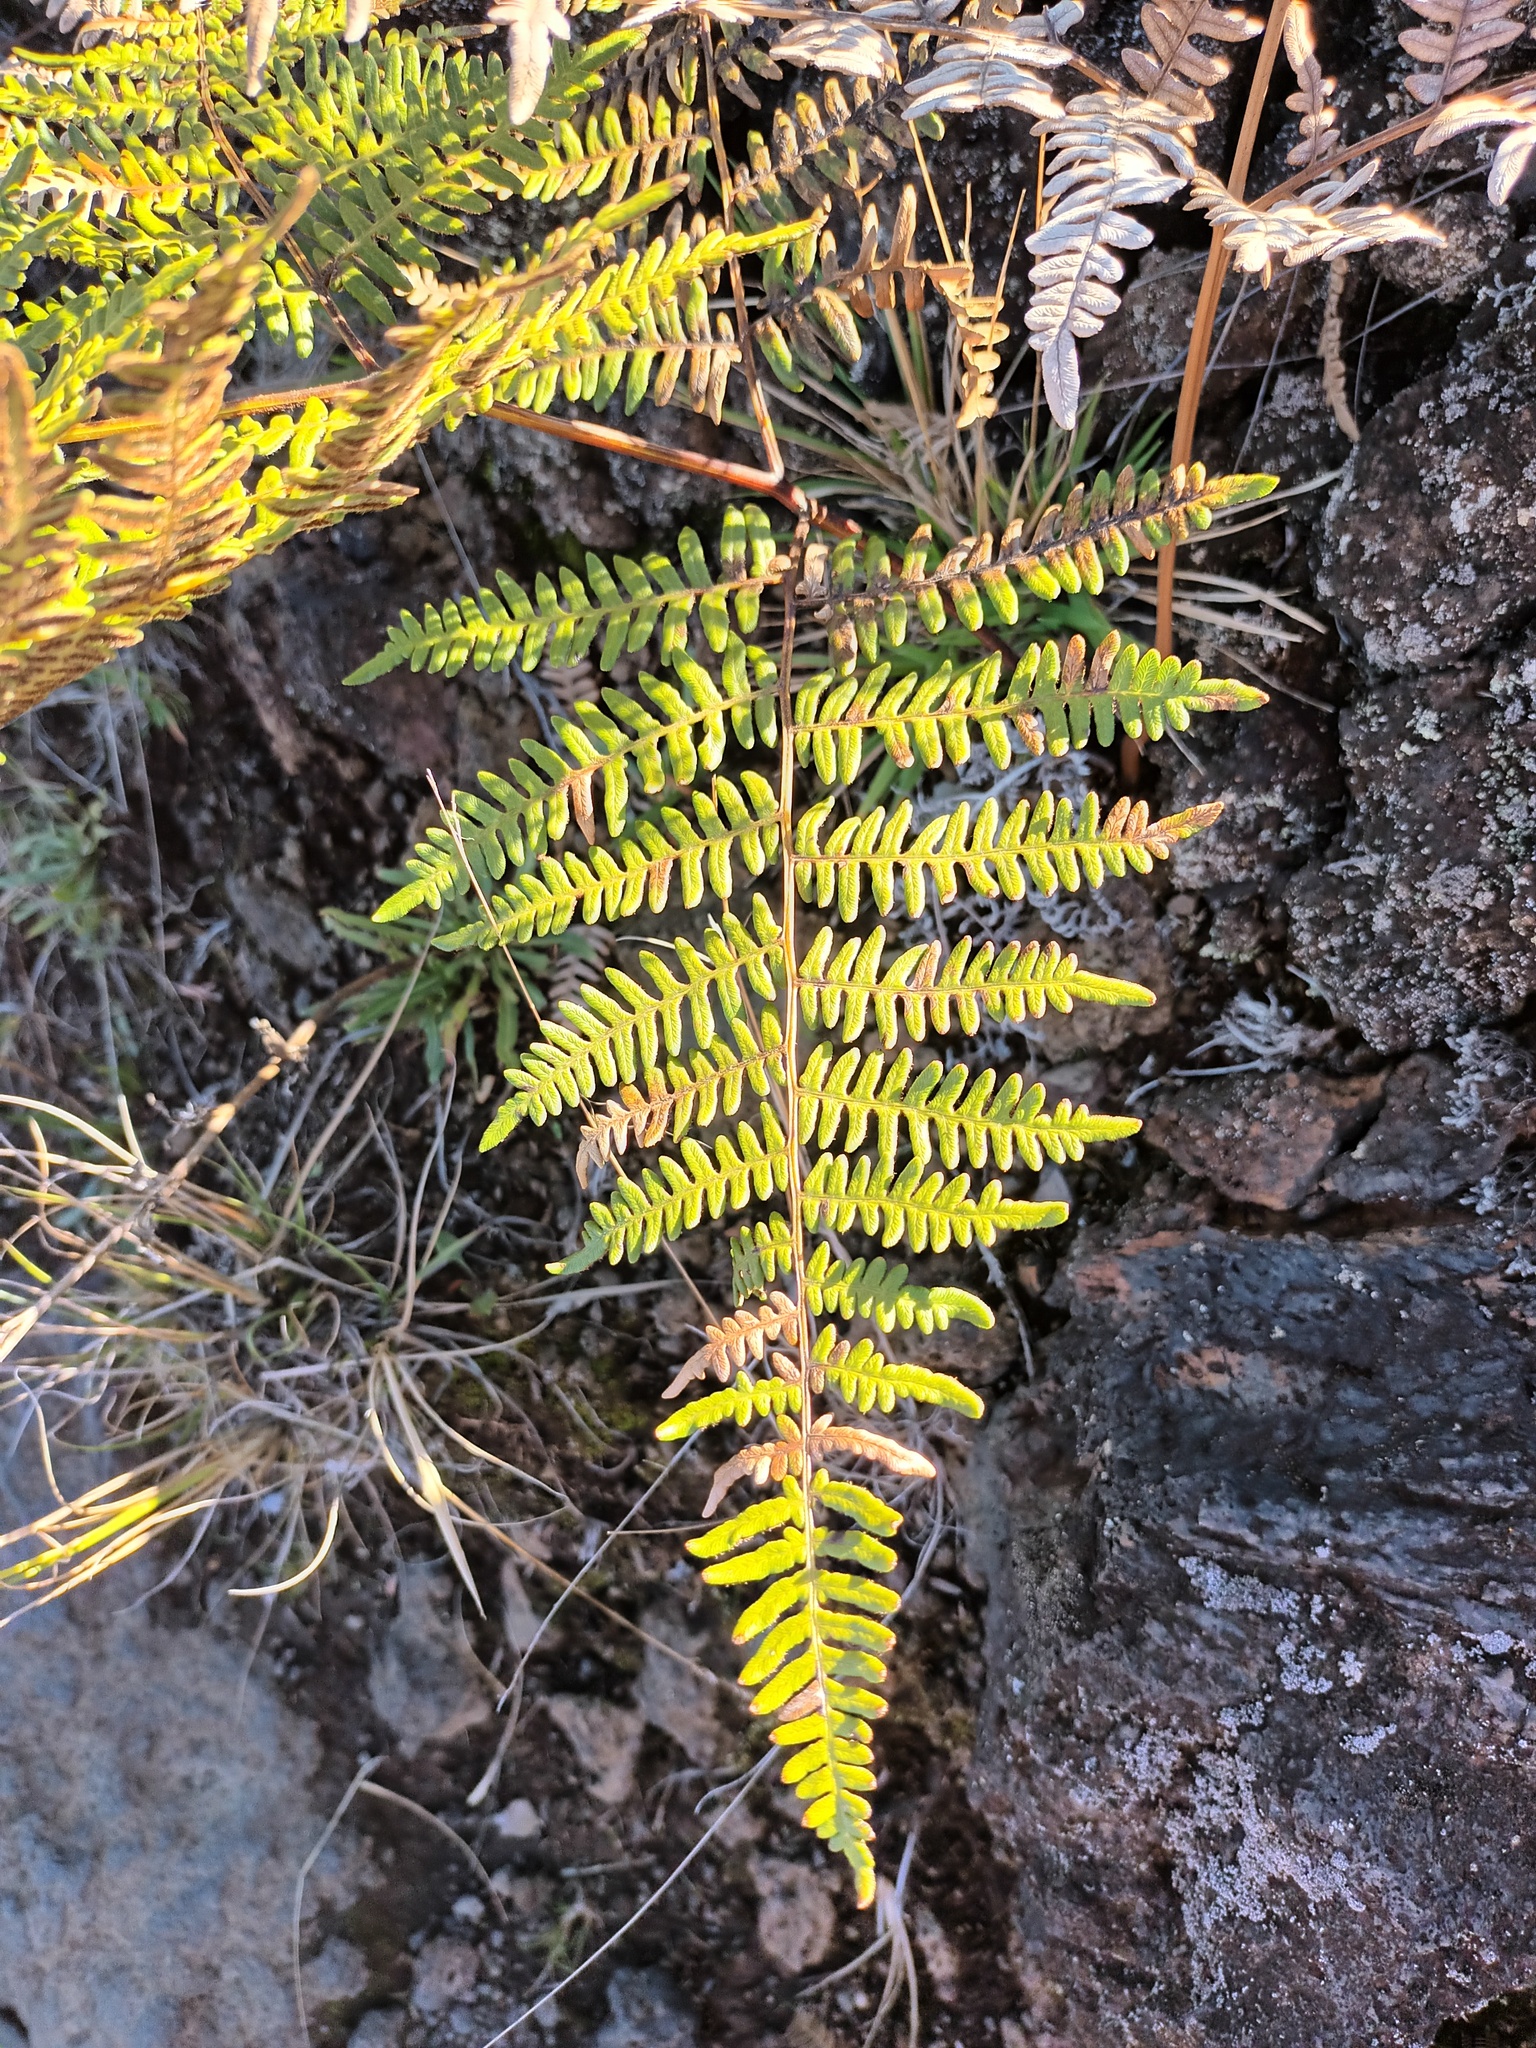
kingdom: Plantae
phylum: Tracheophyta
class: Polypodiopsida
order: Polypodiales
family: Dennstaedtiaceae
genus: Pteridium
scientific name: Pteridium aquilinum
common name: Bracken
